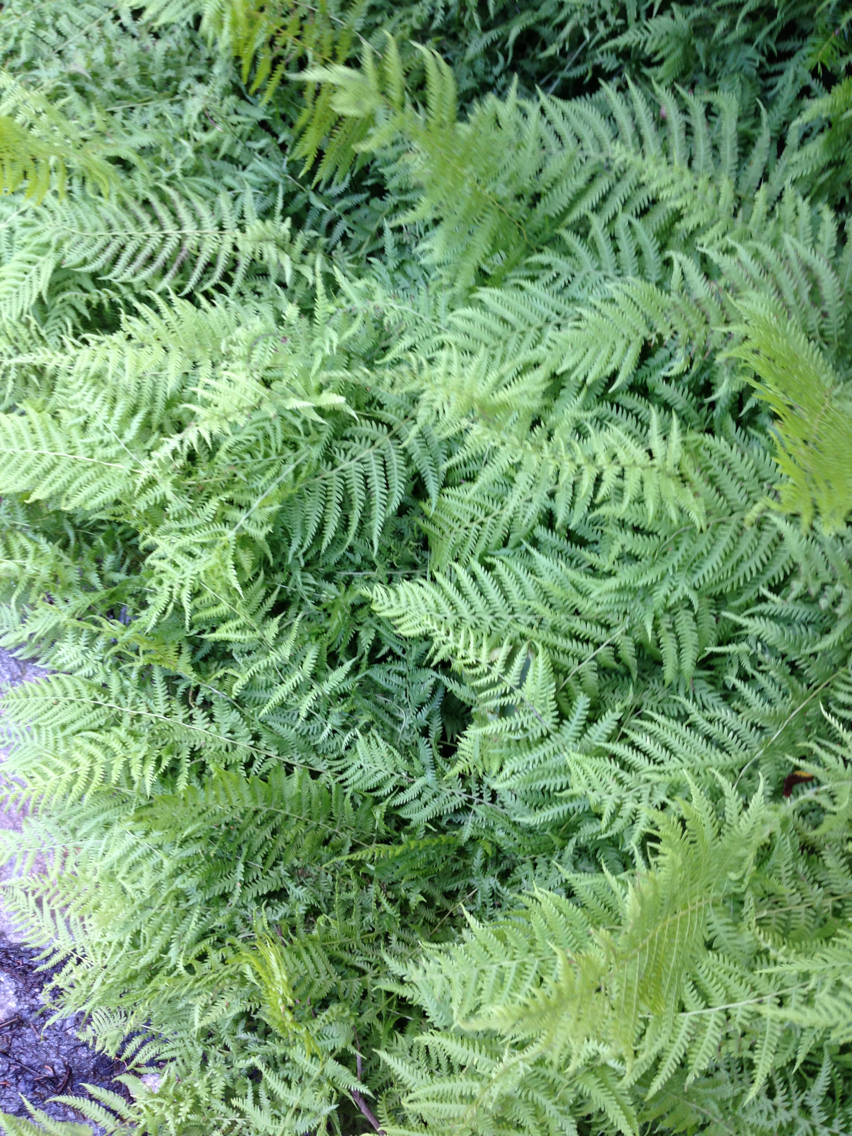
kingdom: Plantae
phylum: Tracheophyta
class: Polypodiopsida
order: Polypodiales
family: Thelypteridaceae
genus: Amauropelta
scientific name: Amauropelta noveboracensis
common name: New york fern
